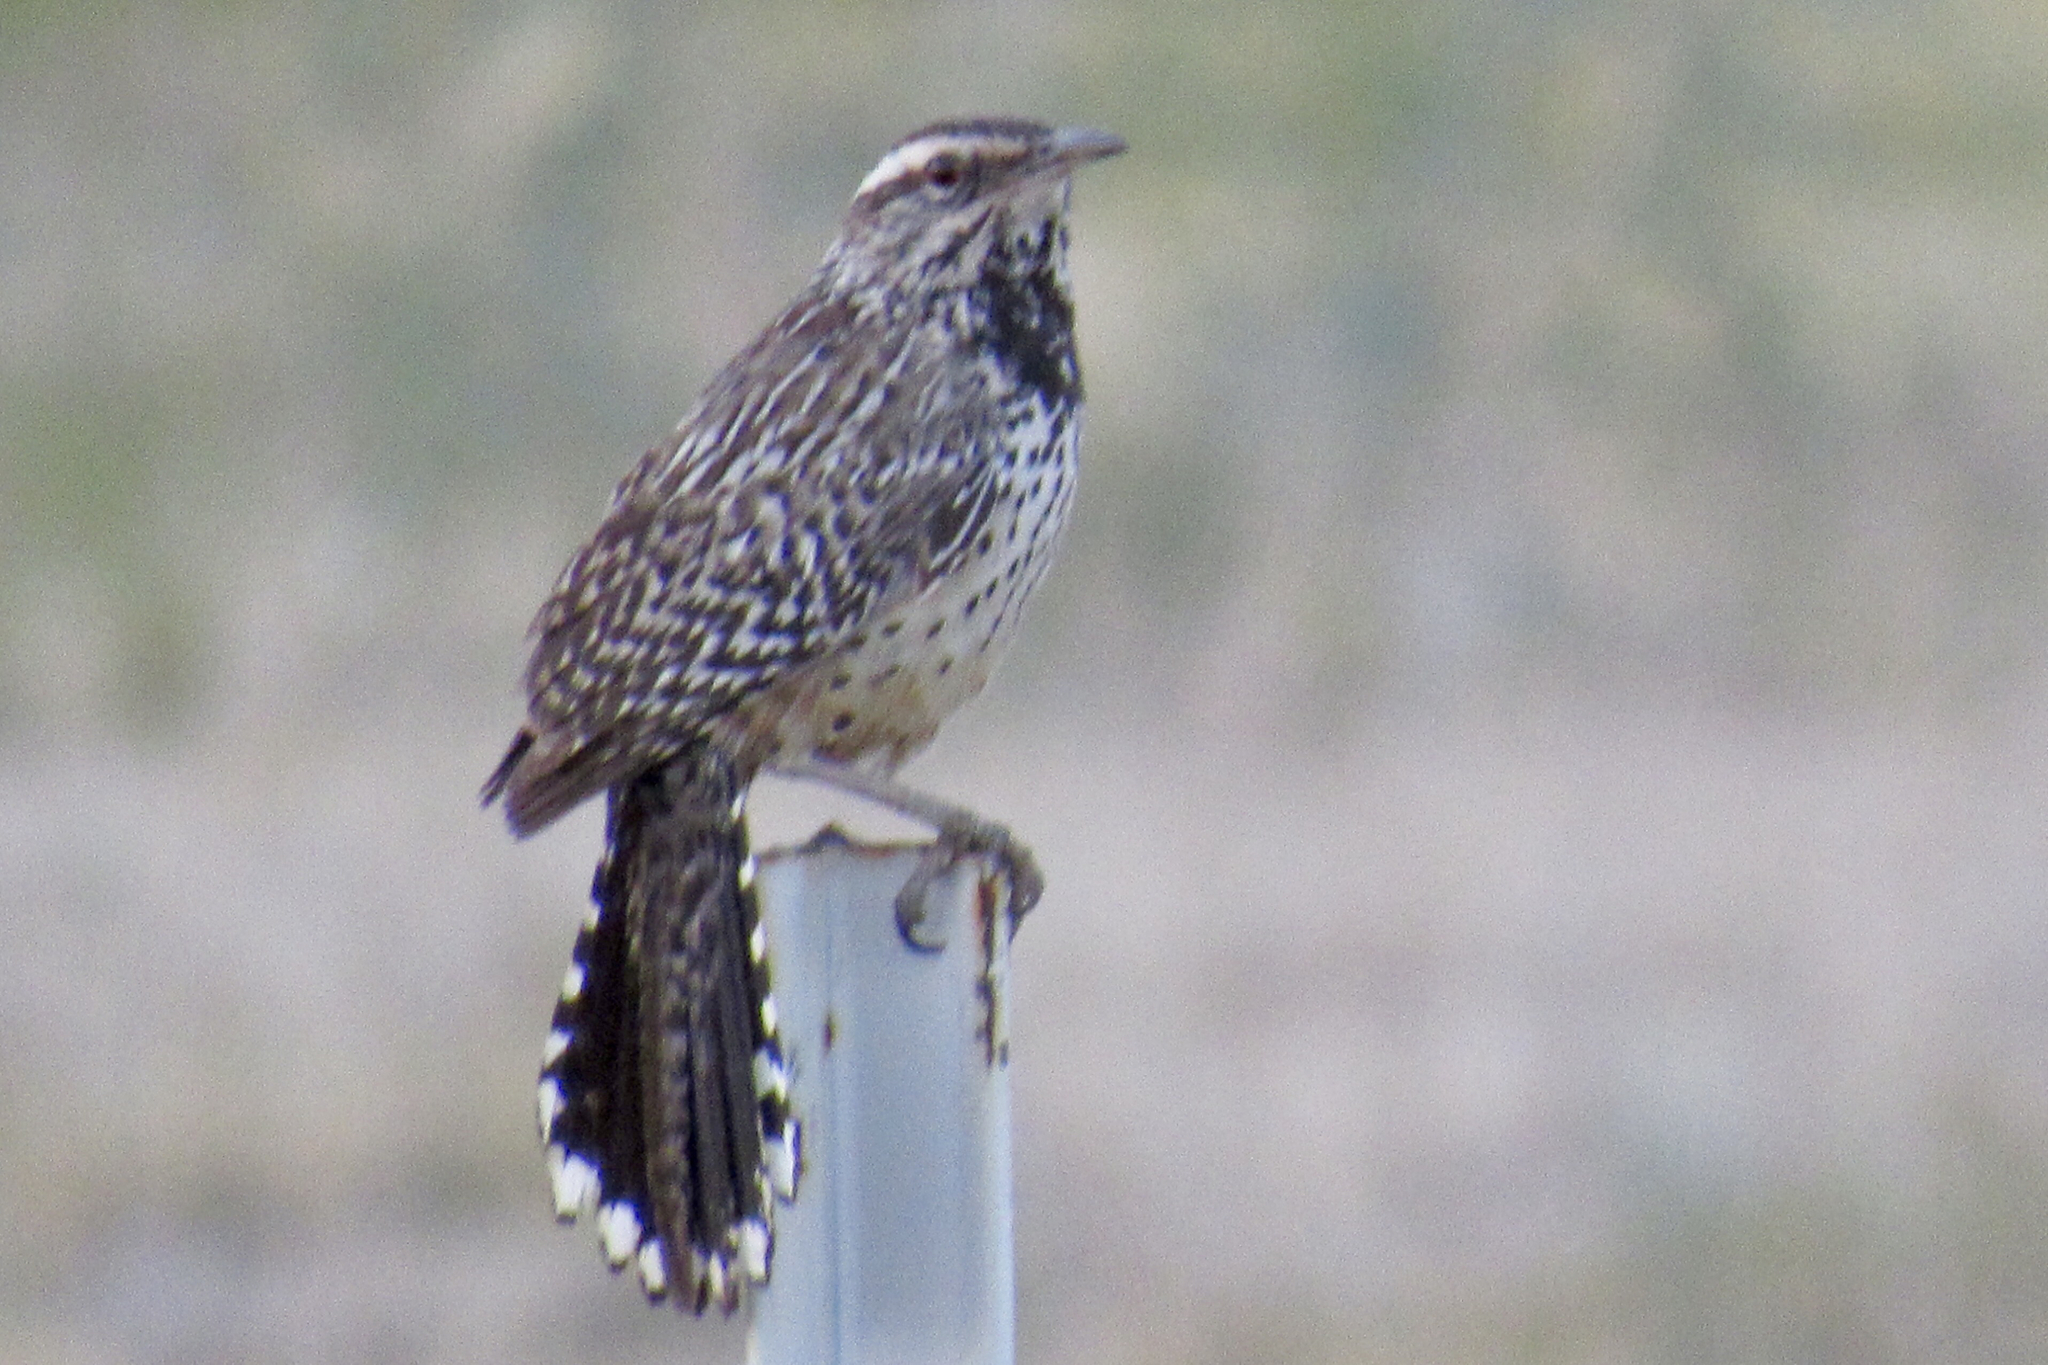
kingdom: Animalia
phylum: Chordata
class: Aves
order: Passeriformes
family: Troglodytidae
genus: Campylorhynchus
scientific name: Campylorhynchus brunneicapillus
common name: Cactus wren
